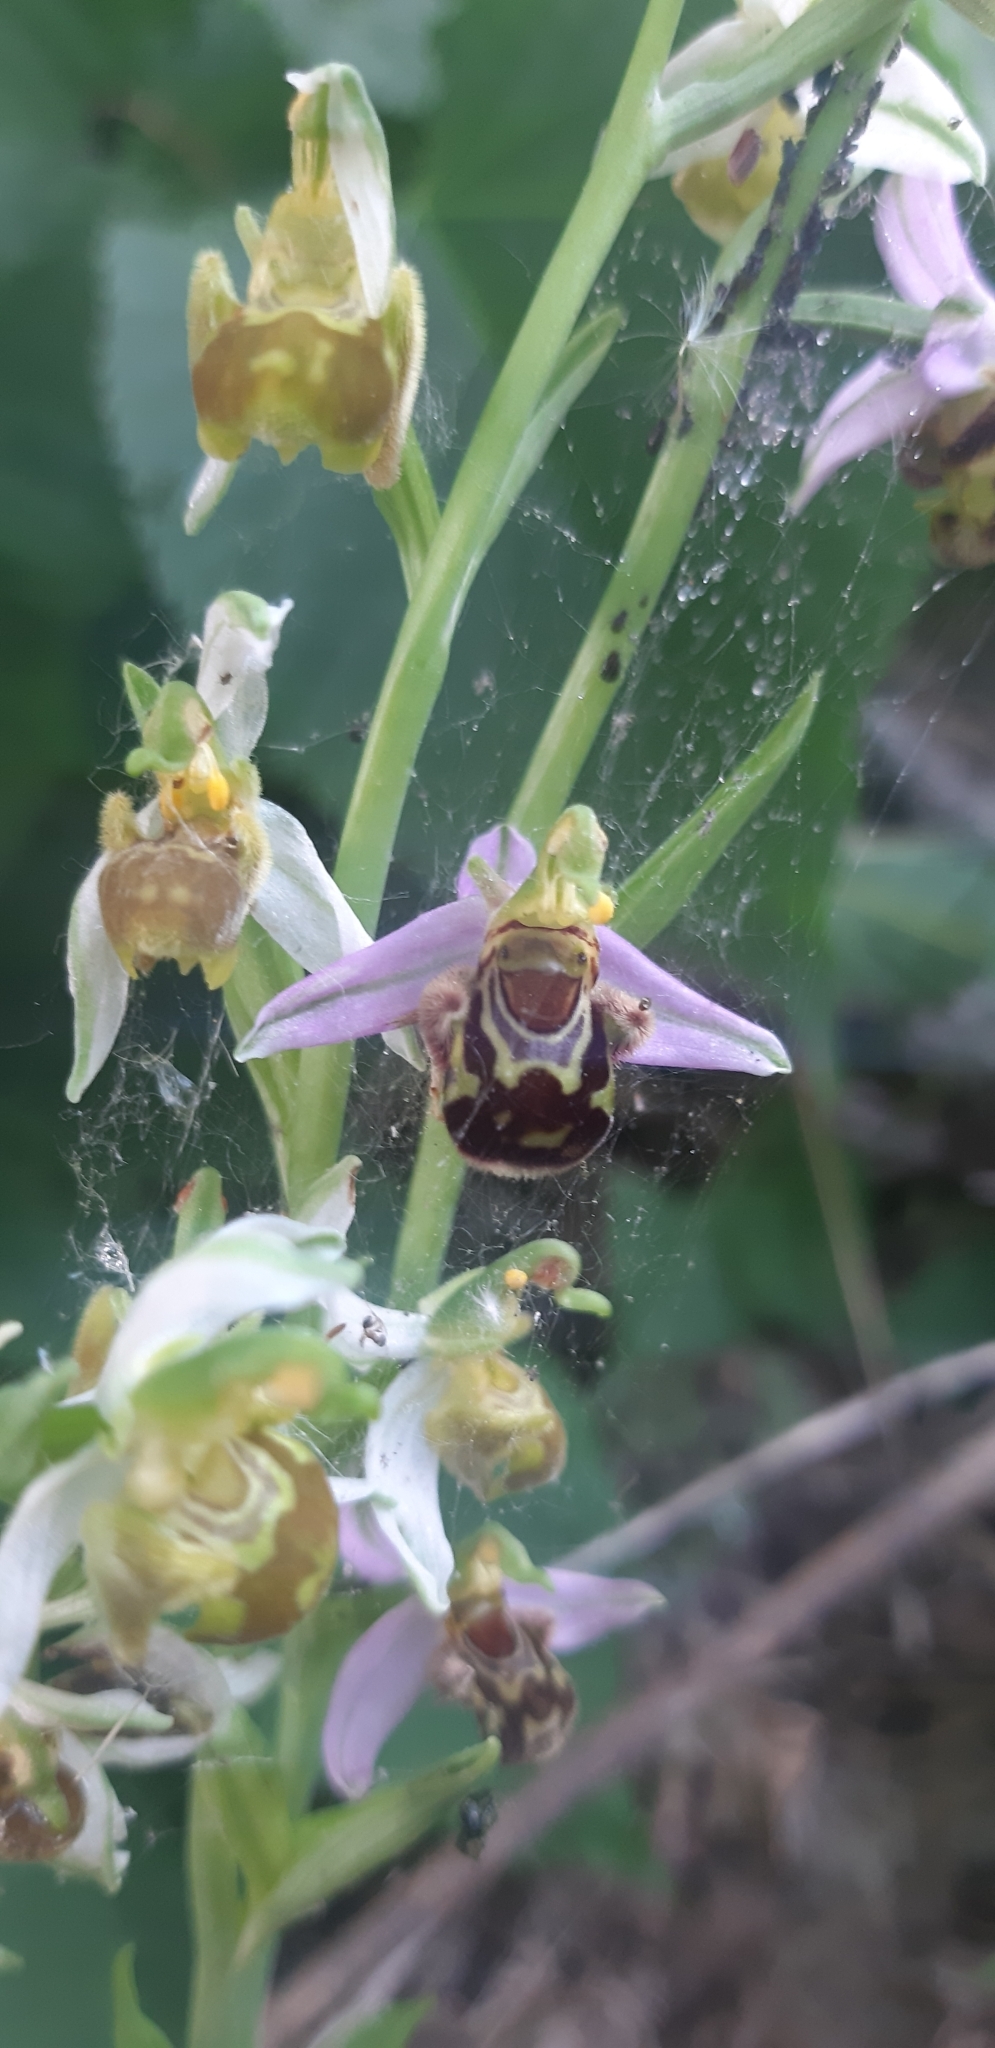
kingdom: Plantae
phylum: Tracheophyta
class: Liliopsida
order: Asparagales
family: Orchidaceae
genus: Ophrys
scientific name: Ophrys apifera
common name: Bee orchid
